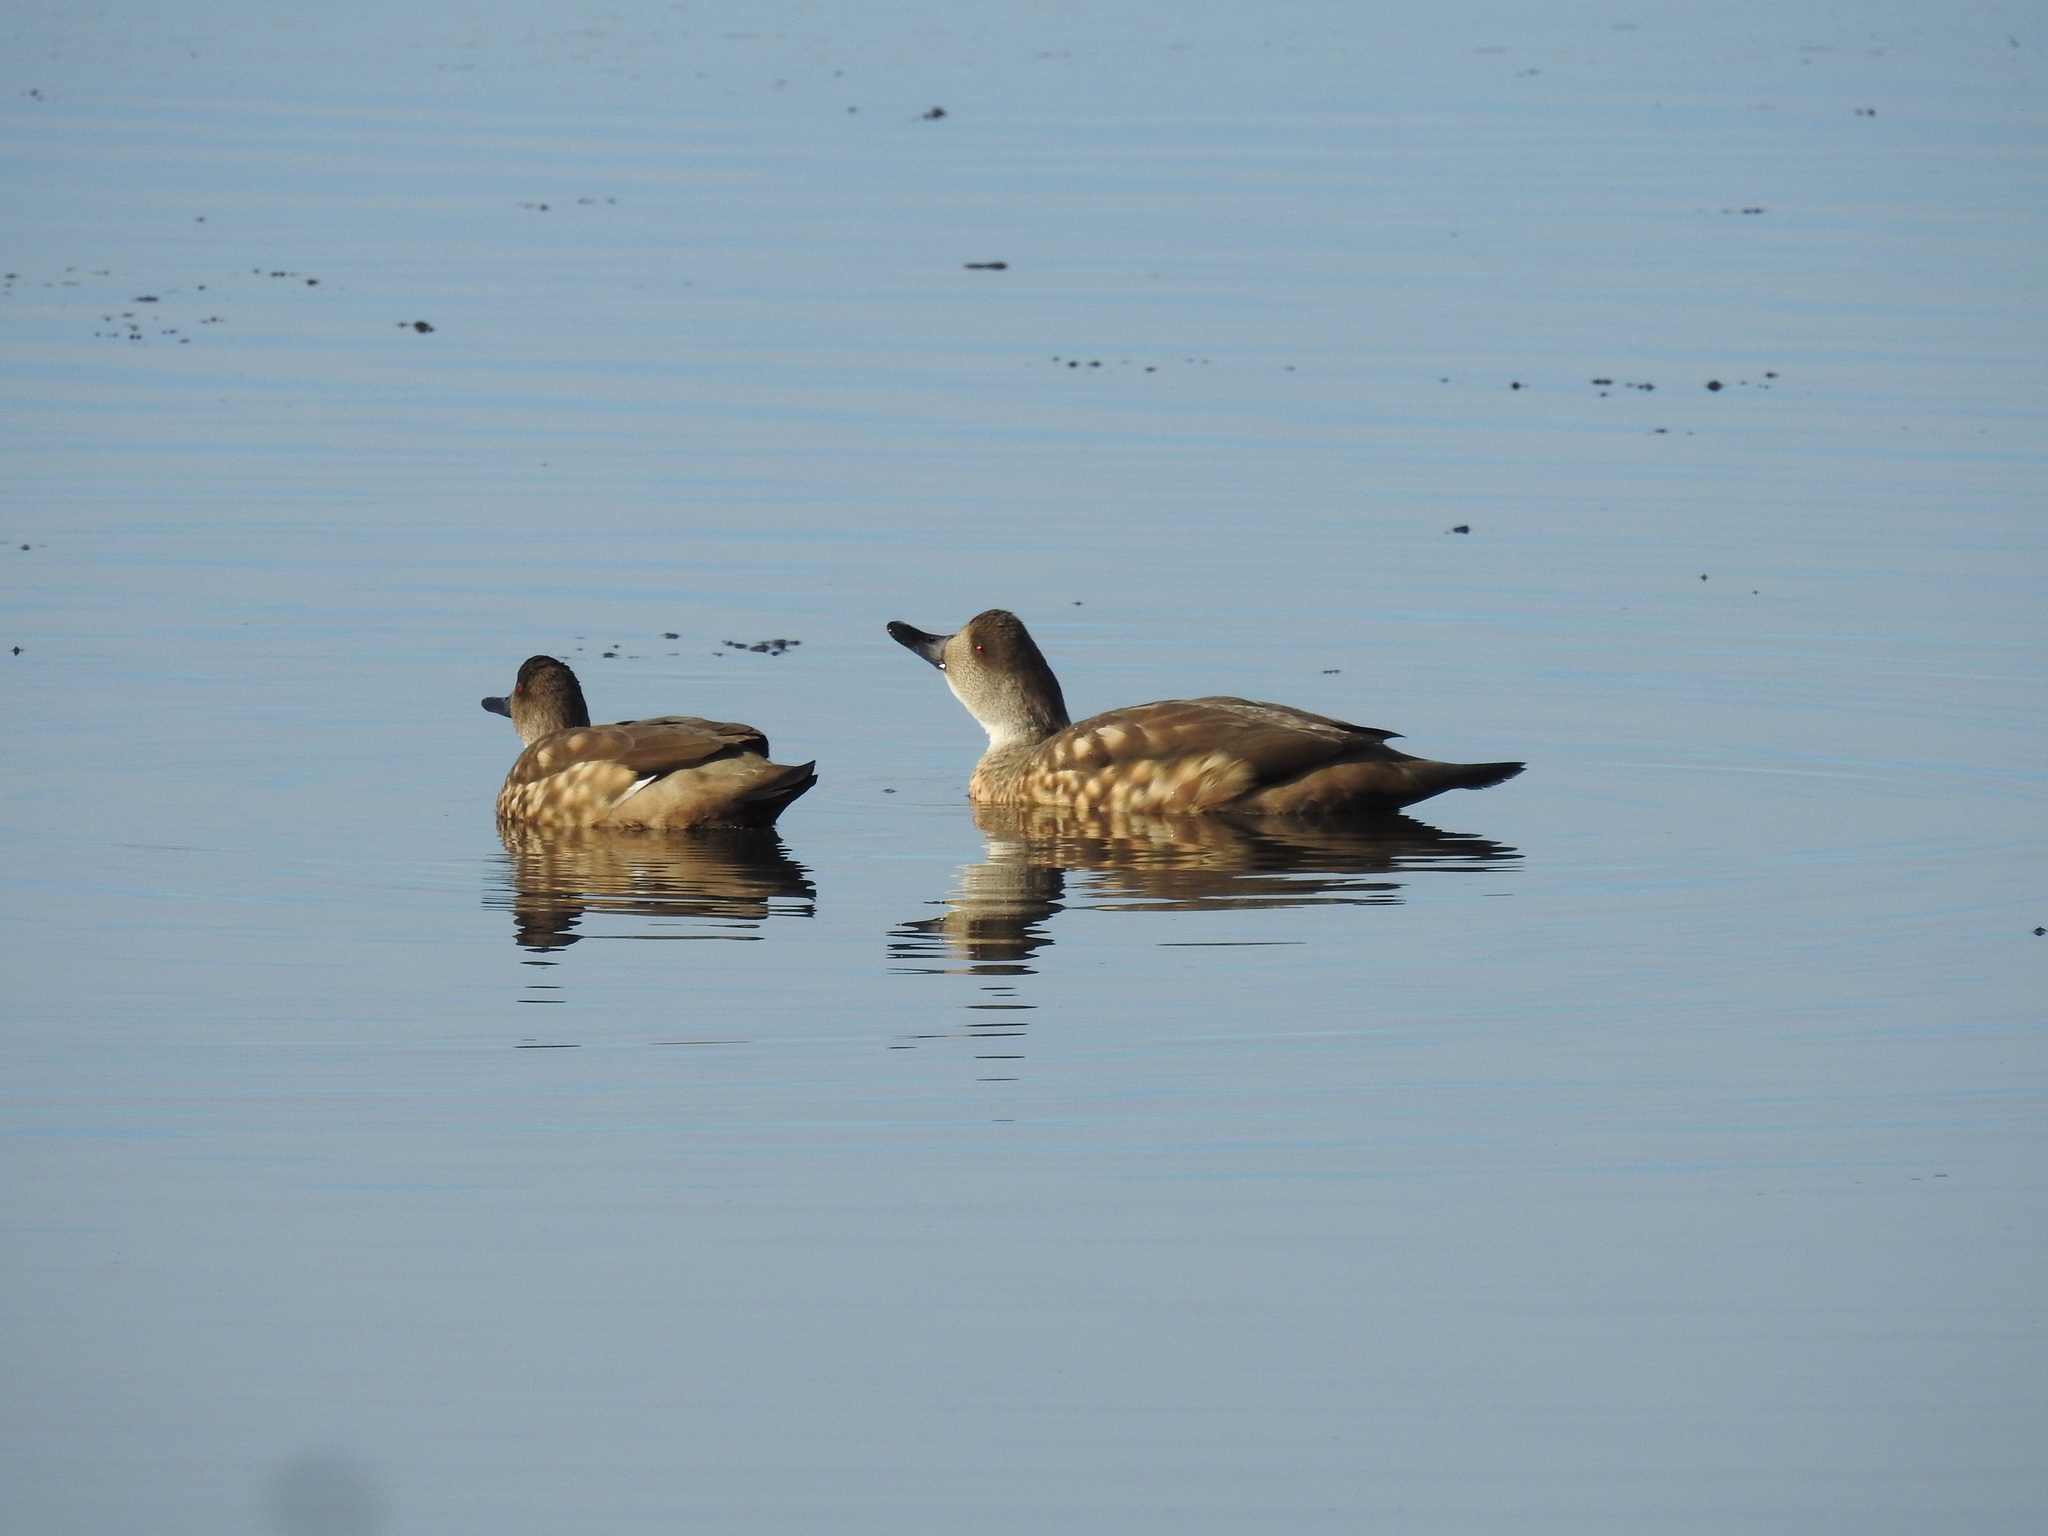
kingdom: Animalia
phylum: Chordata
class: Aves
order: Anseriformes
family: Anatidae
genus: Lophonetta
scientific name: Lophonetta specularioides
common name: Crested duck
